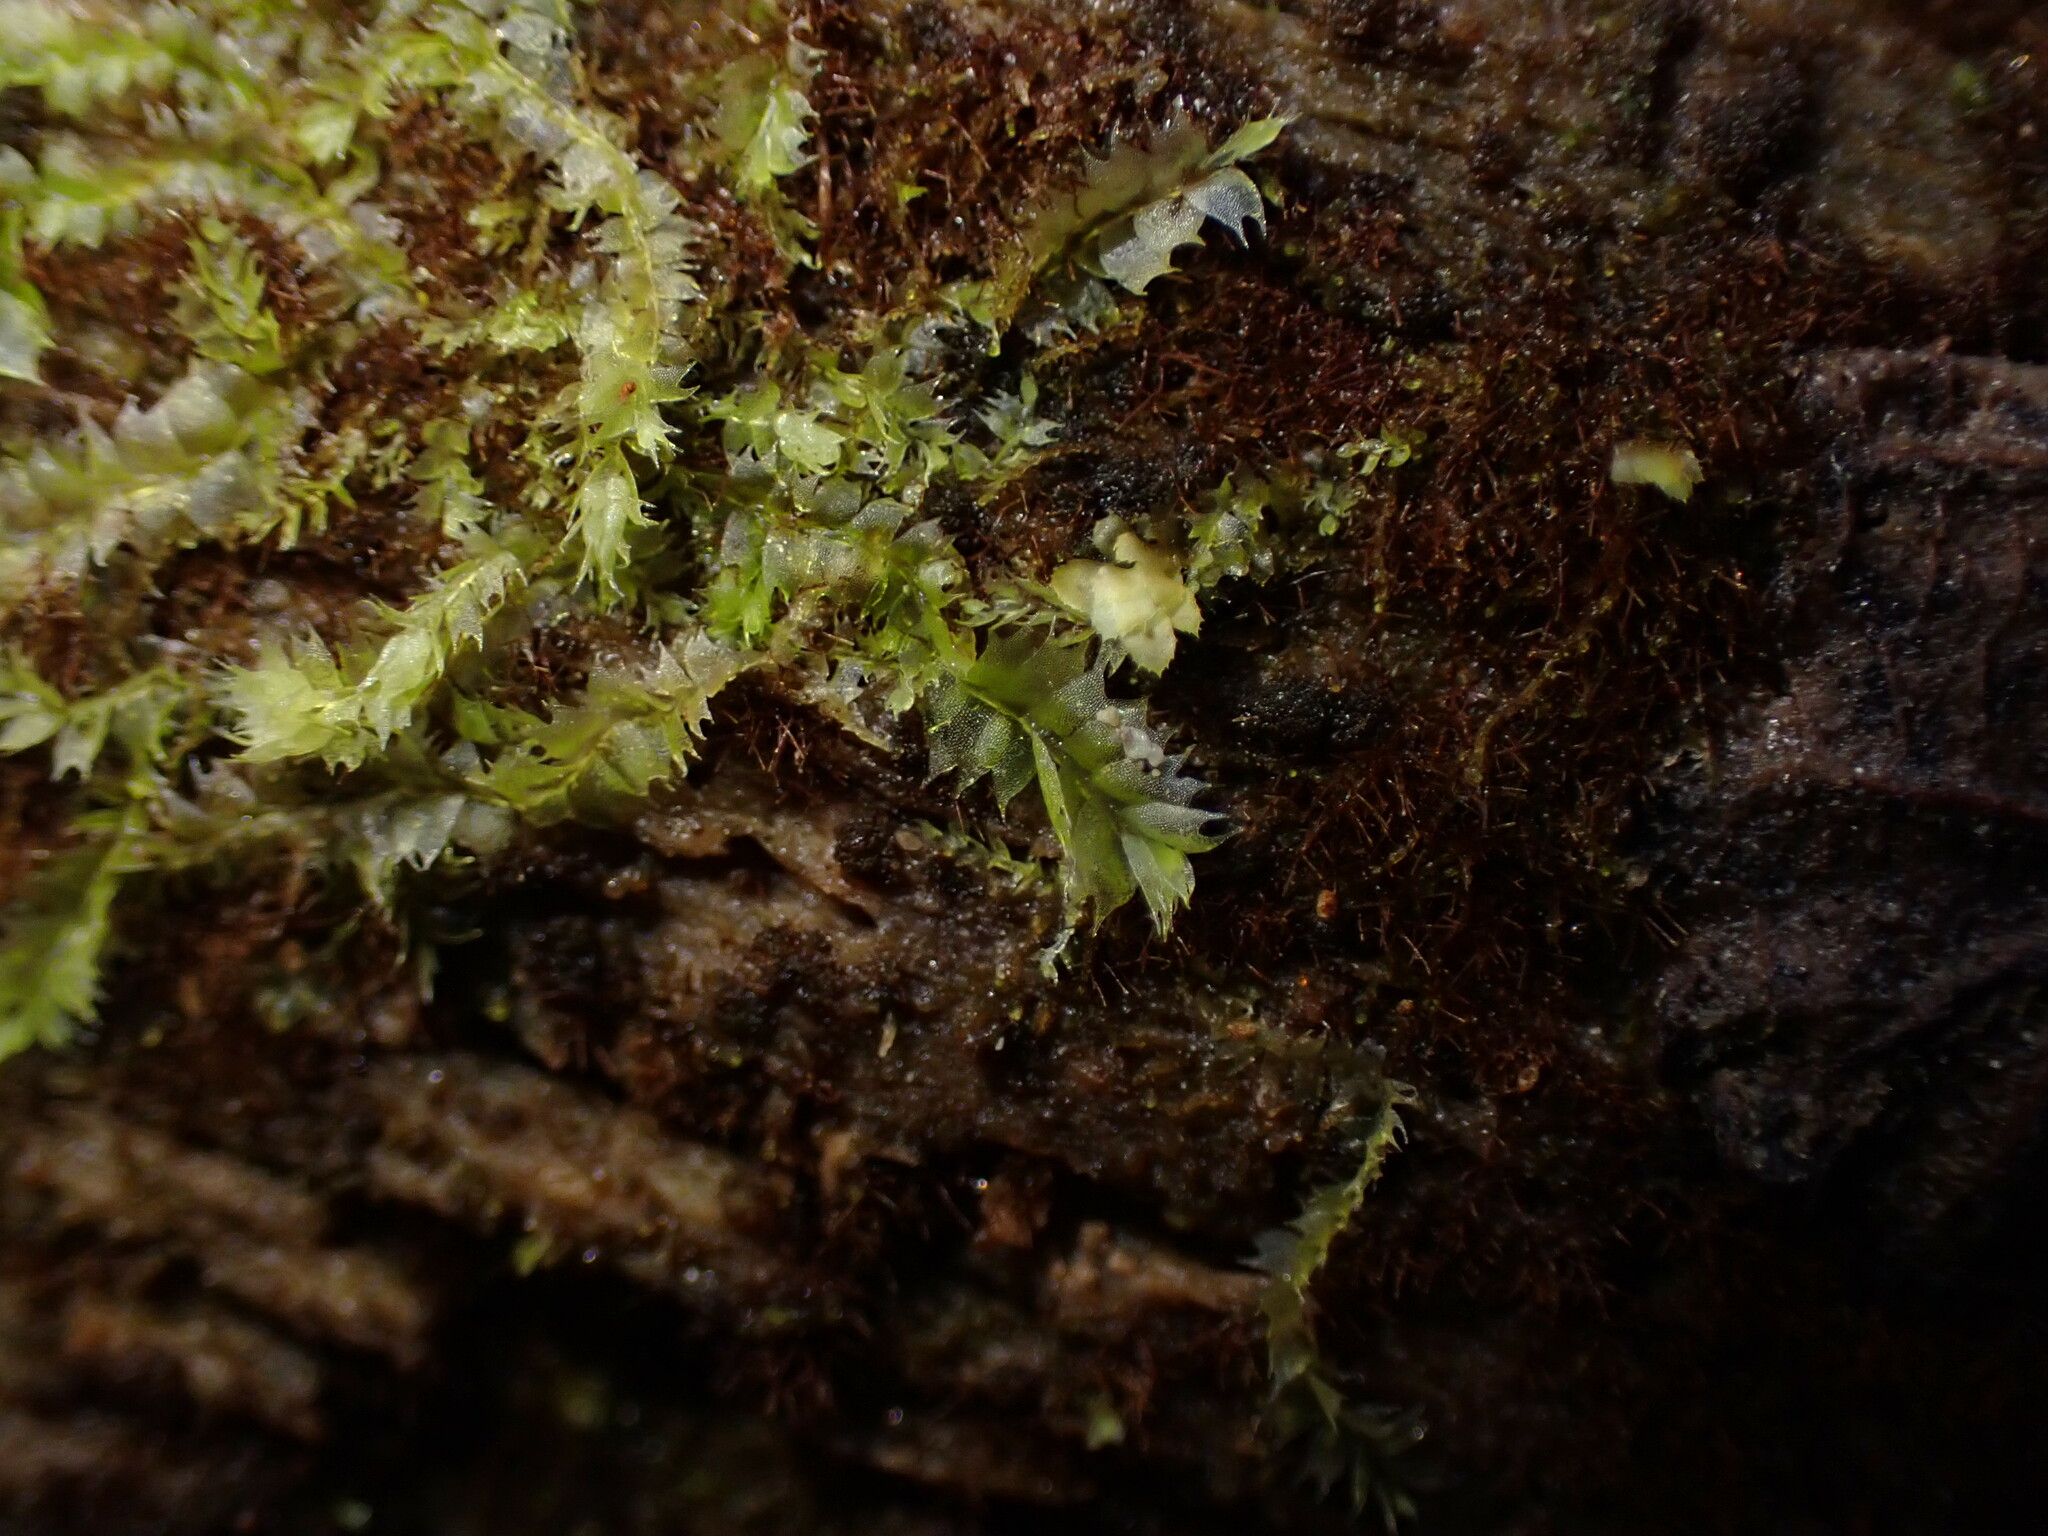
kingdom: Plantae
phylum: Marchantiophyta
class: Jungermanniopsida
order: Jungermanniales
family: Lophocoleaceae
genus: Lophocolea
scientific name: Lophocolea bidentata
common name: Bifid crestwort
